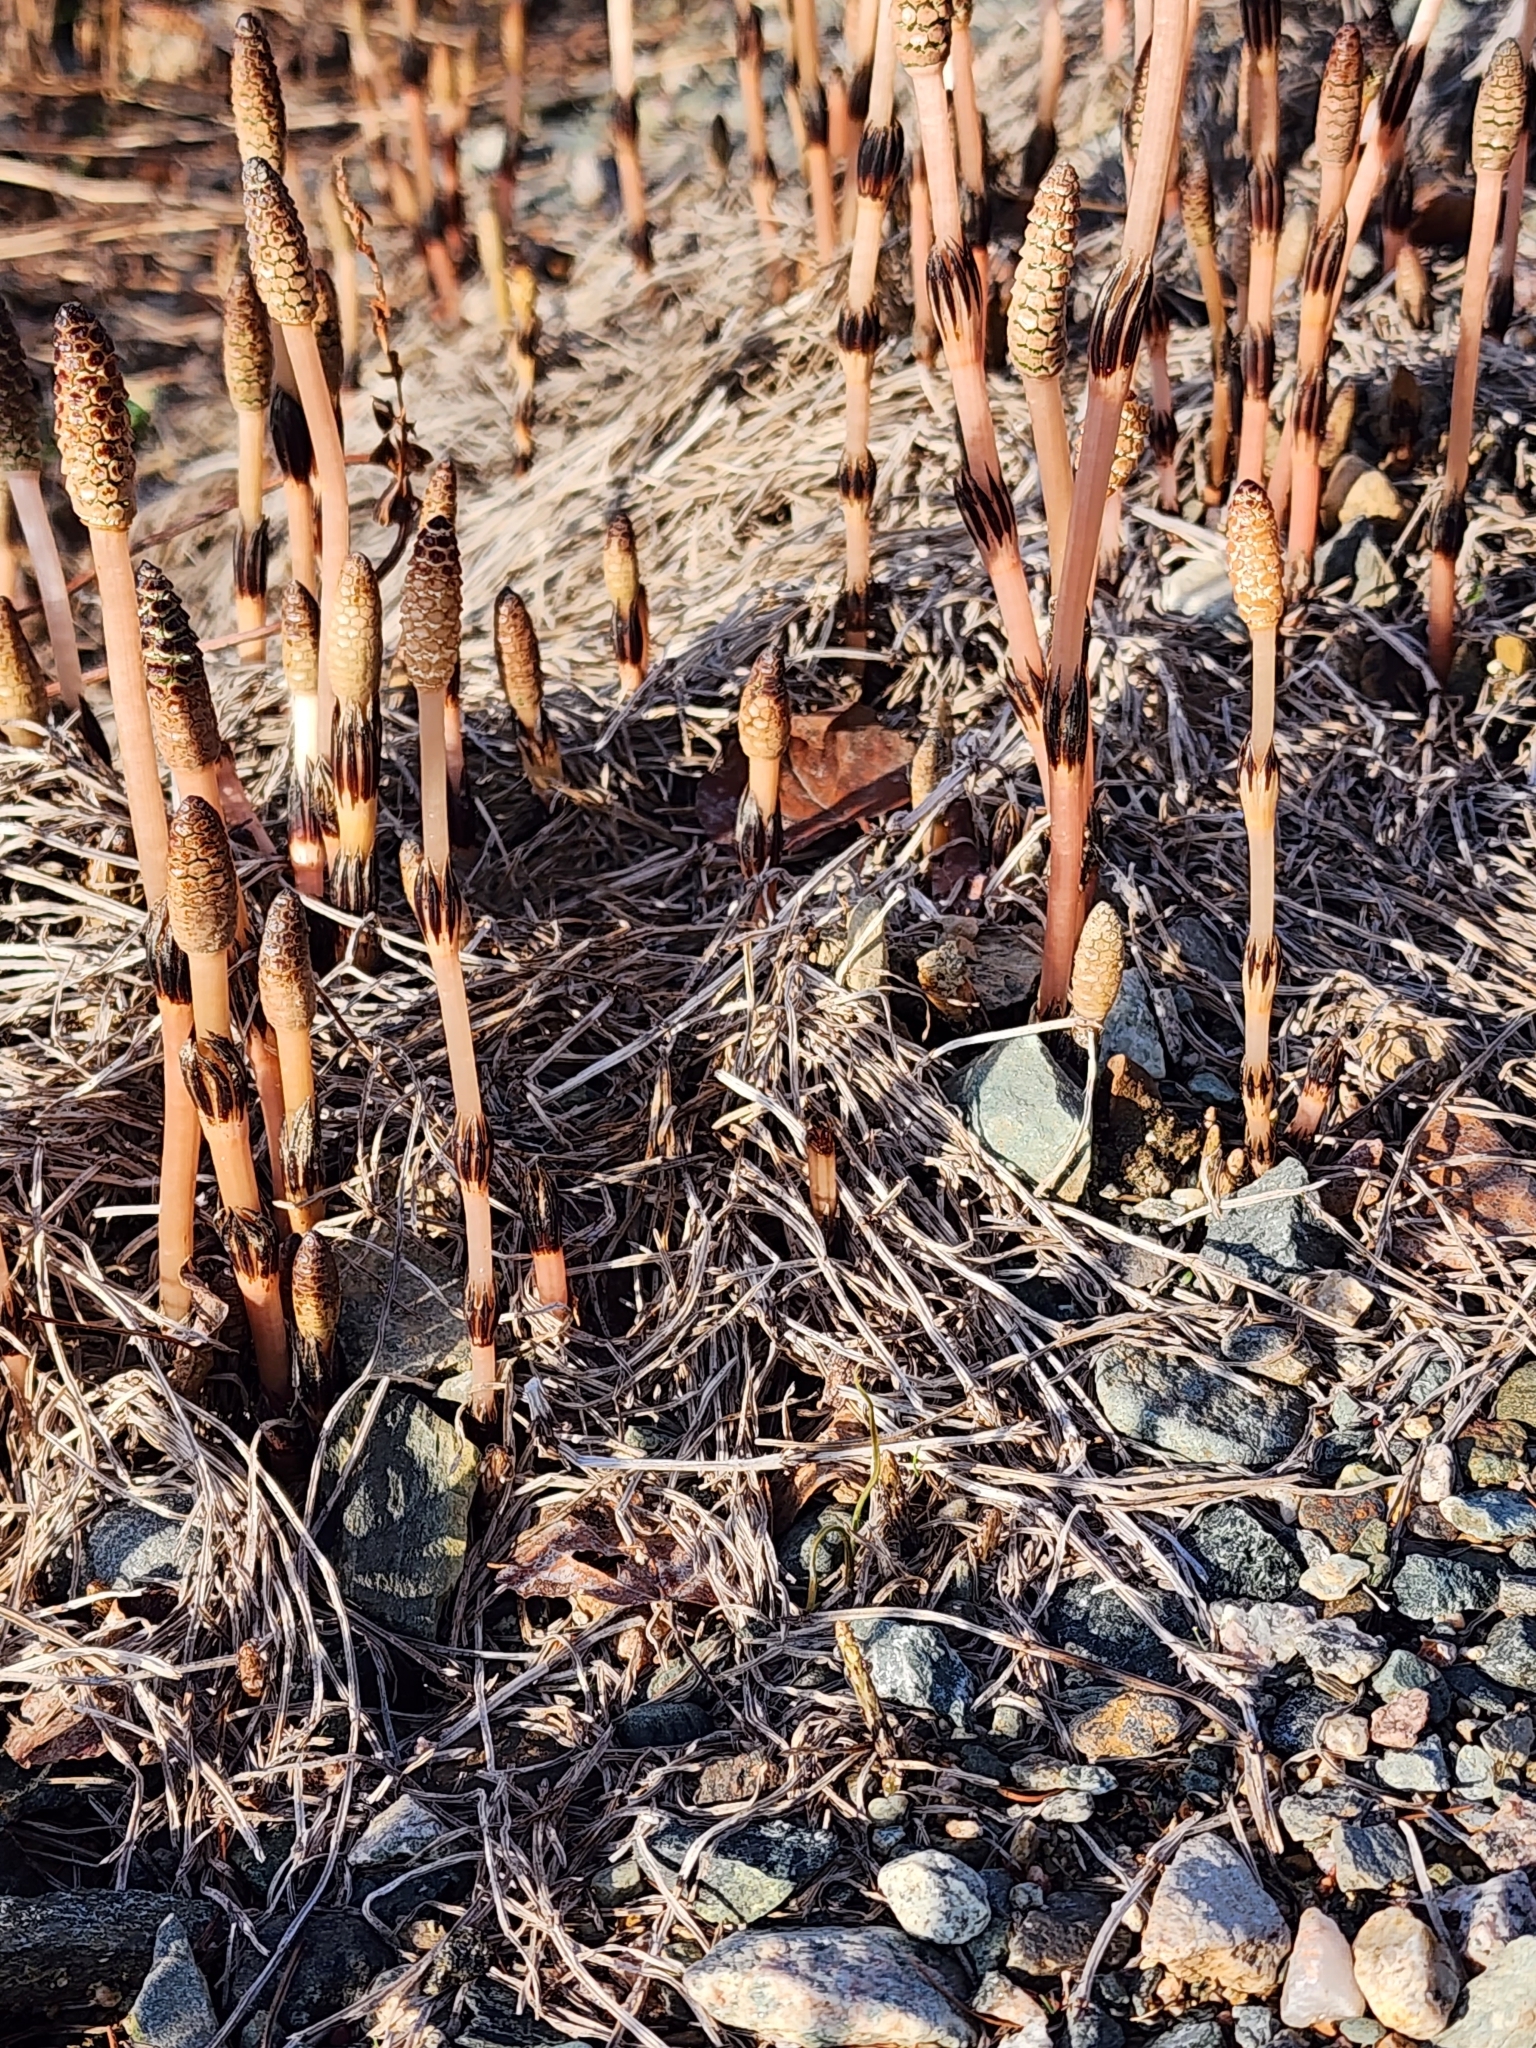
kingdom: Plantae
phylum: Tracheophyta
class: Polypodiopsida
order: Equisetales
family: Equisetaceae
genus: Equisetum
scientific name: Equisetum arvense
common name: Field horsetail
